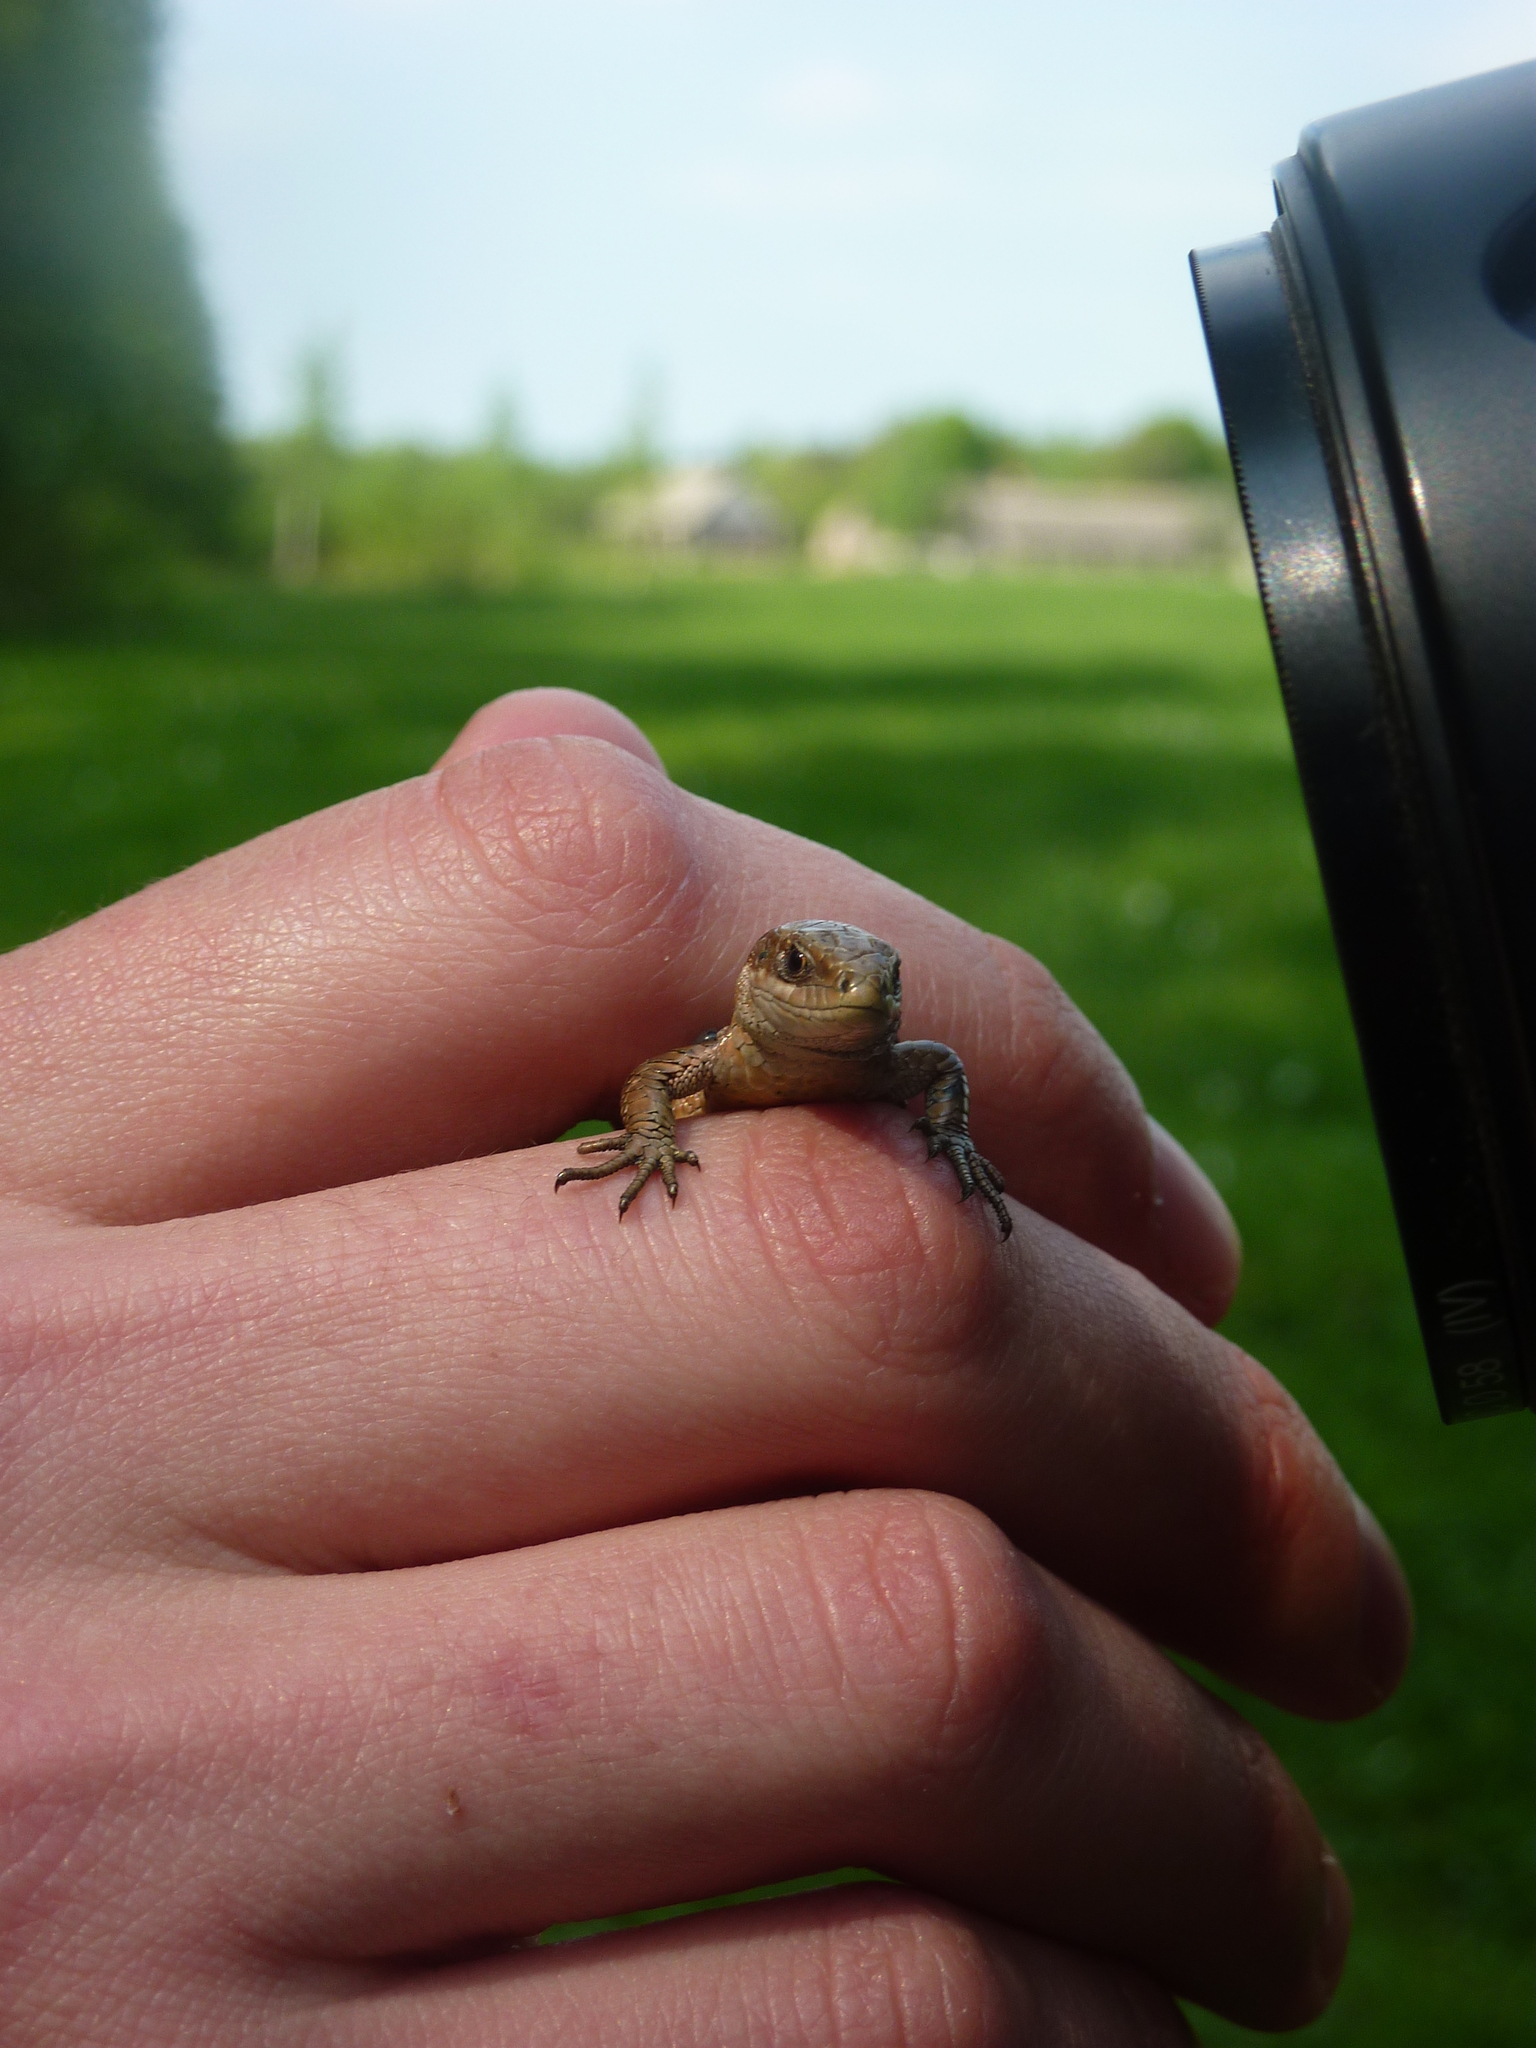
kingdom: Animalia
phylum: Chordata
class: Squamata
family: Lacertidae
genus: Zootoca
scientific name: Zootoca vivipara
